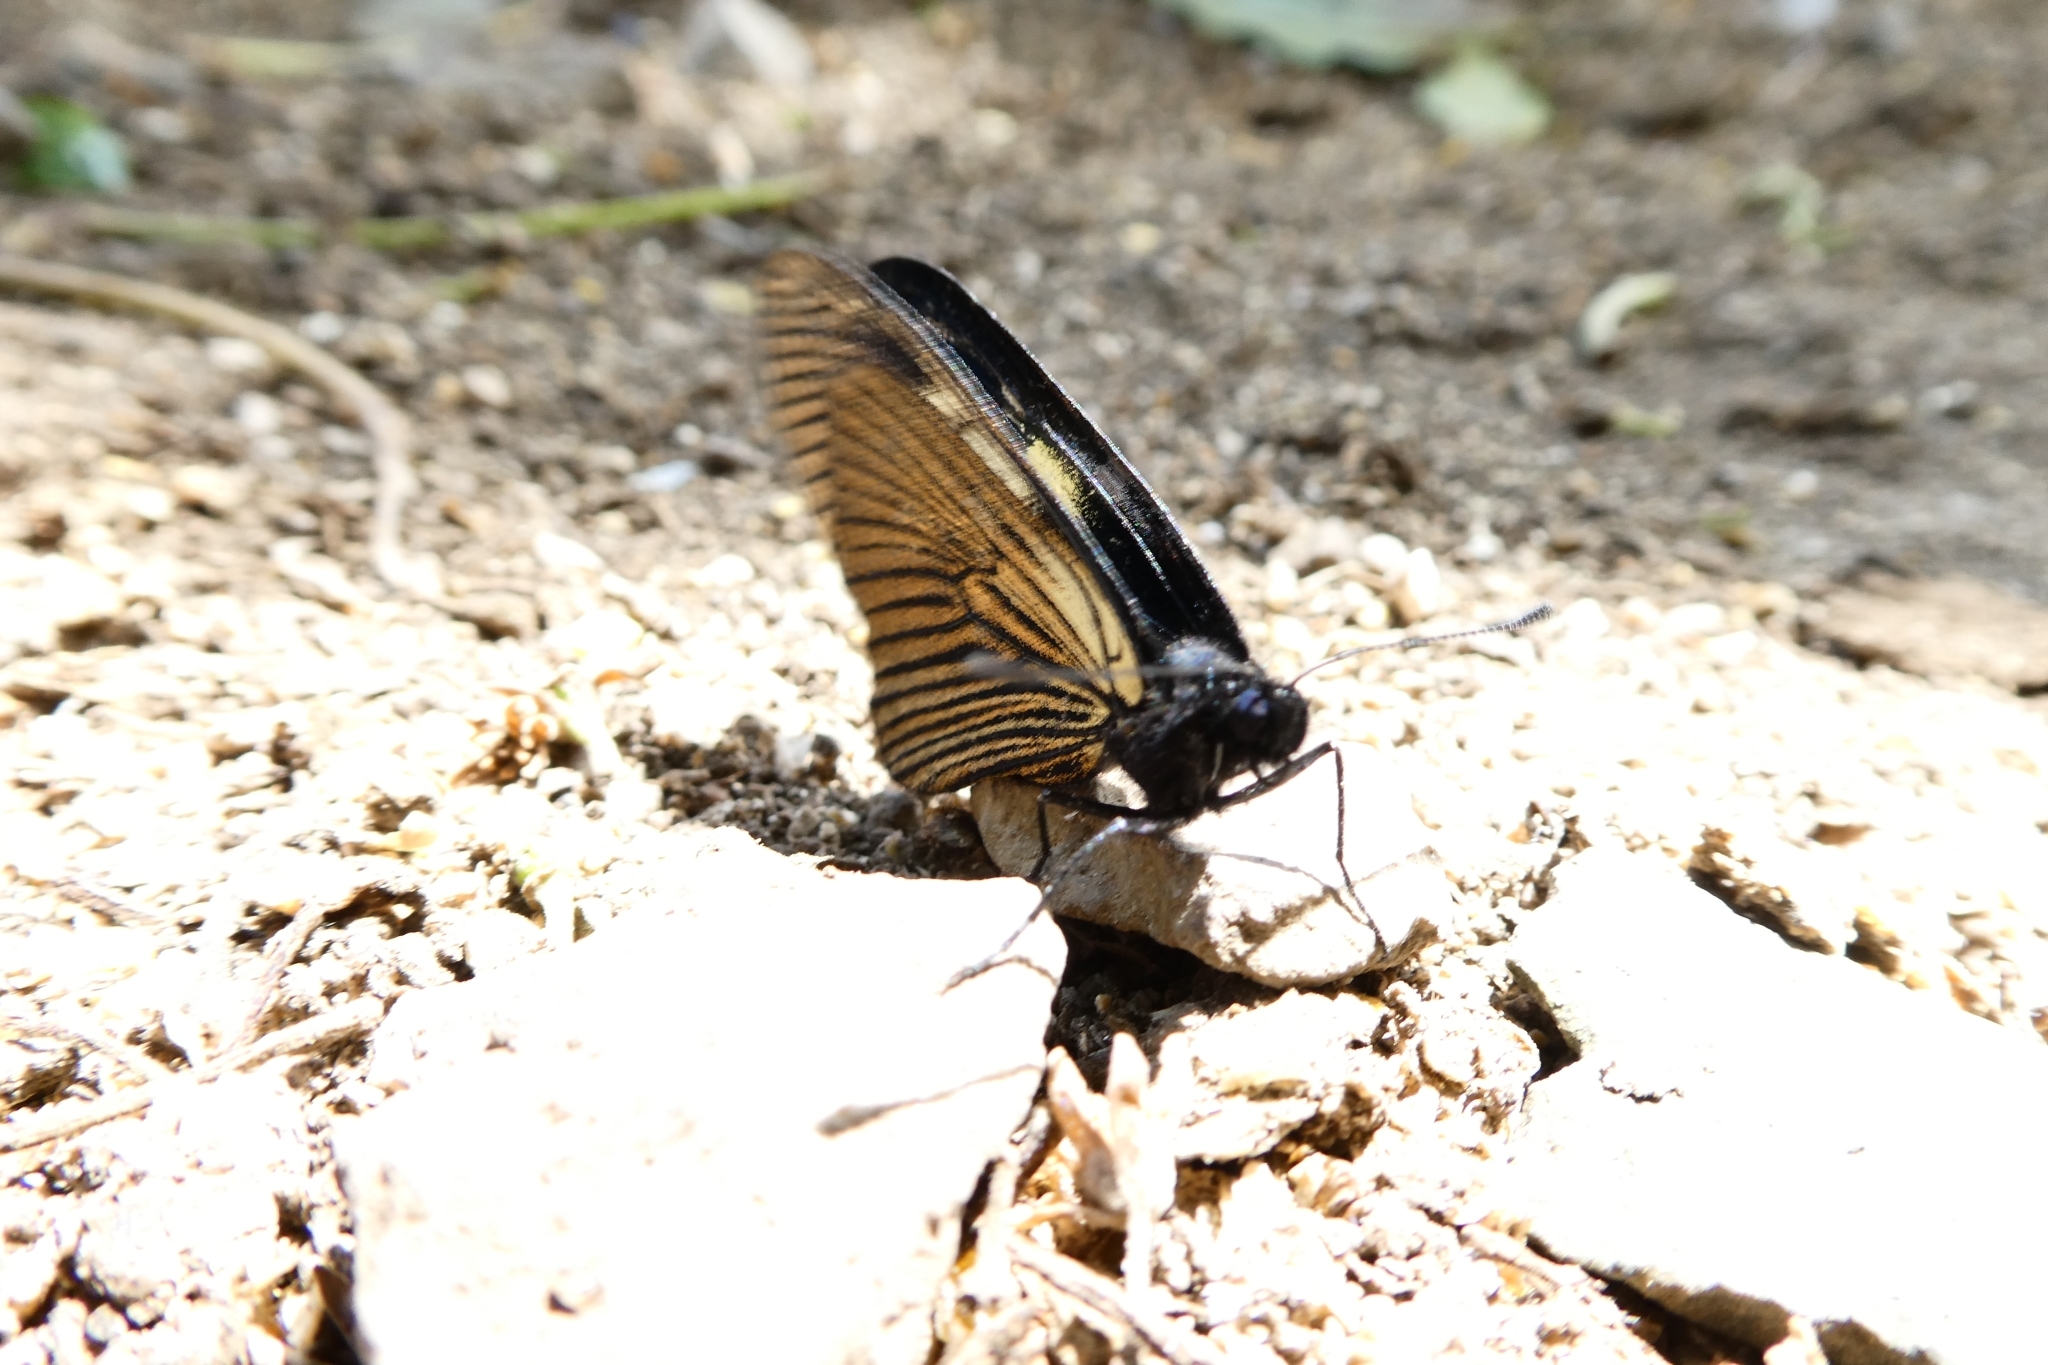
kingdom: Animalia
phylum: Arthropoda
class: Insecta
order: Lepidoptera
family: Nymphalidae
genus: Acraea
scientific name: Acraea Altinote ozomene
